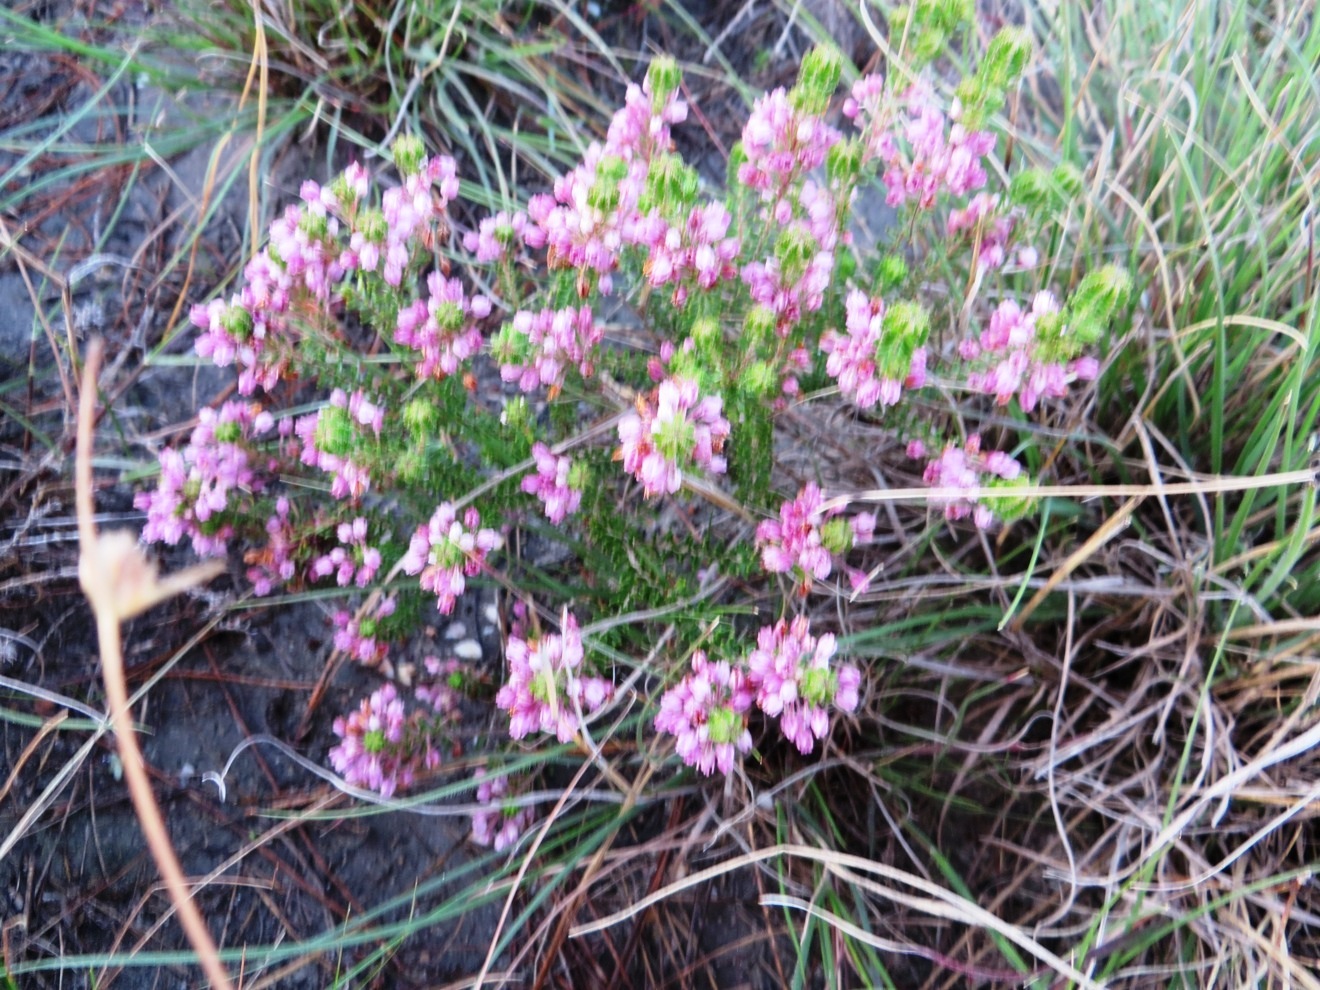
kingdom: Plantae
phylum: Tracheophyta
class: Magnoliopsida
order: Ericales
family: Ericaceae
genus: Erica
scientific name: Erica collina
